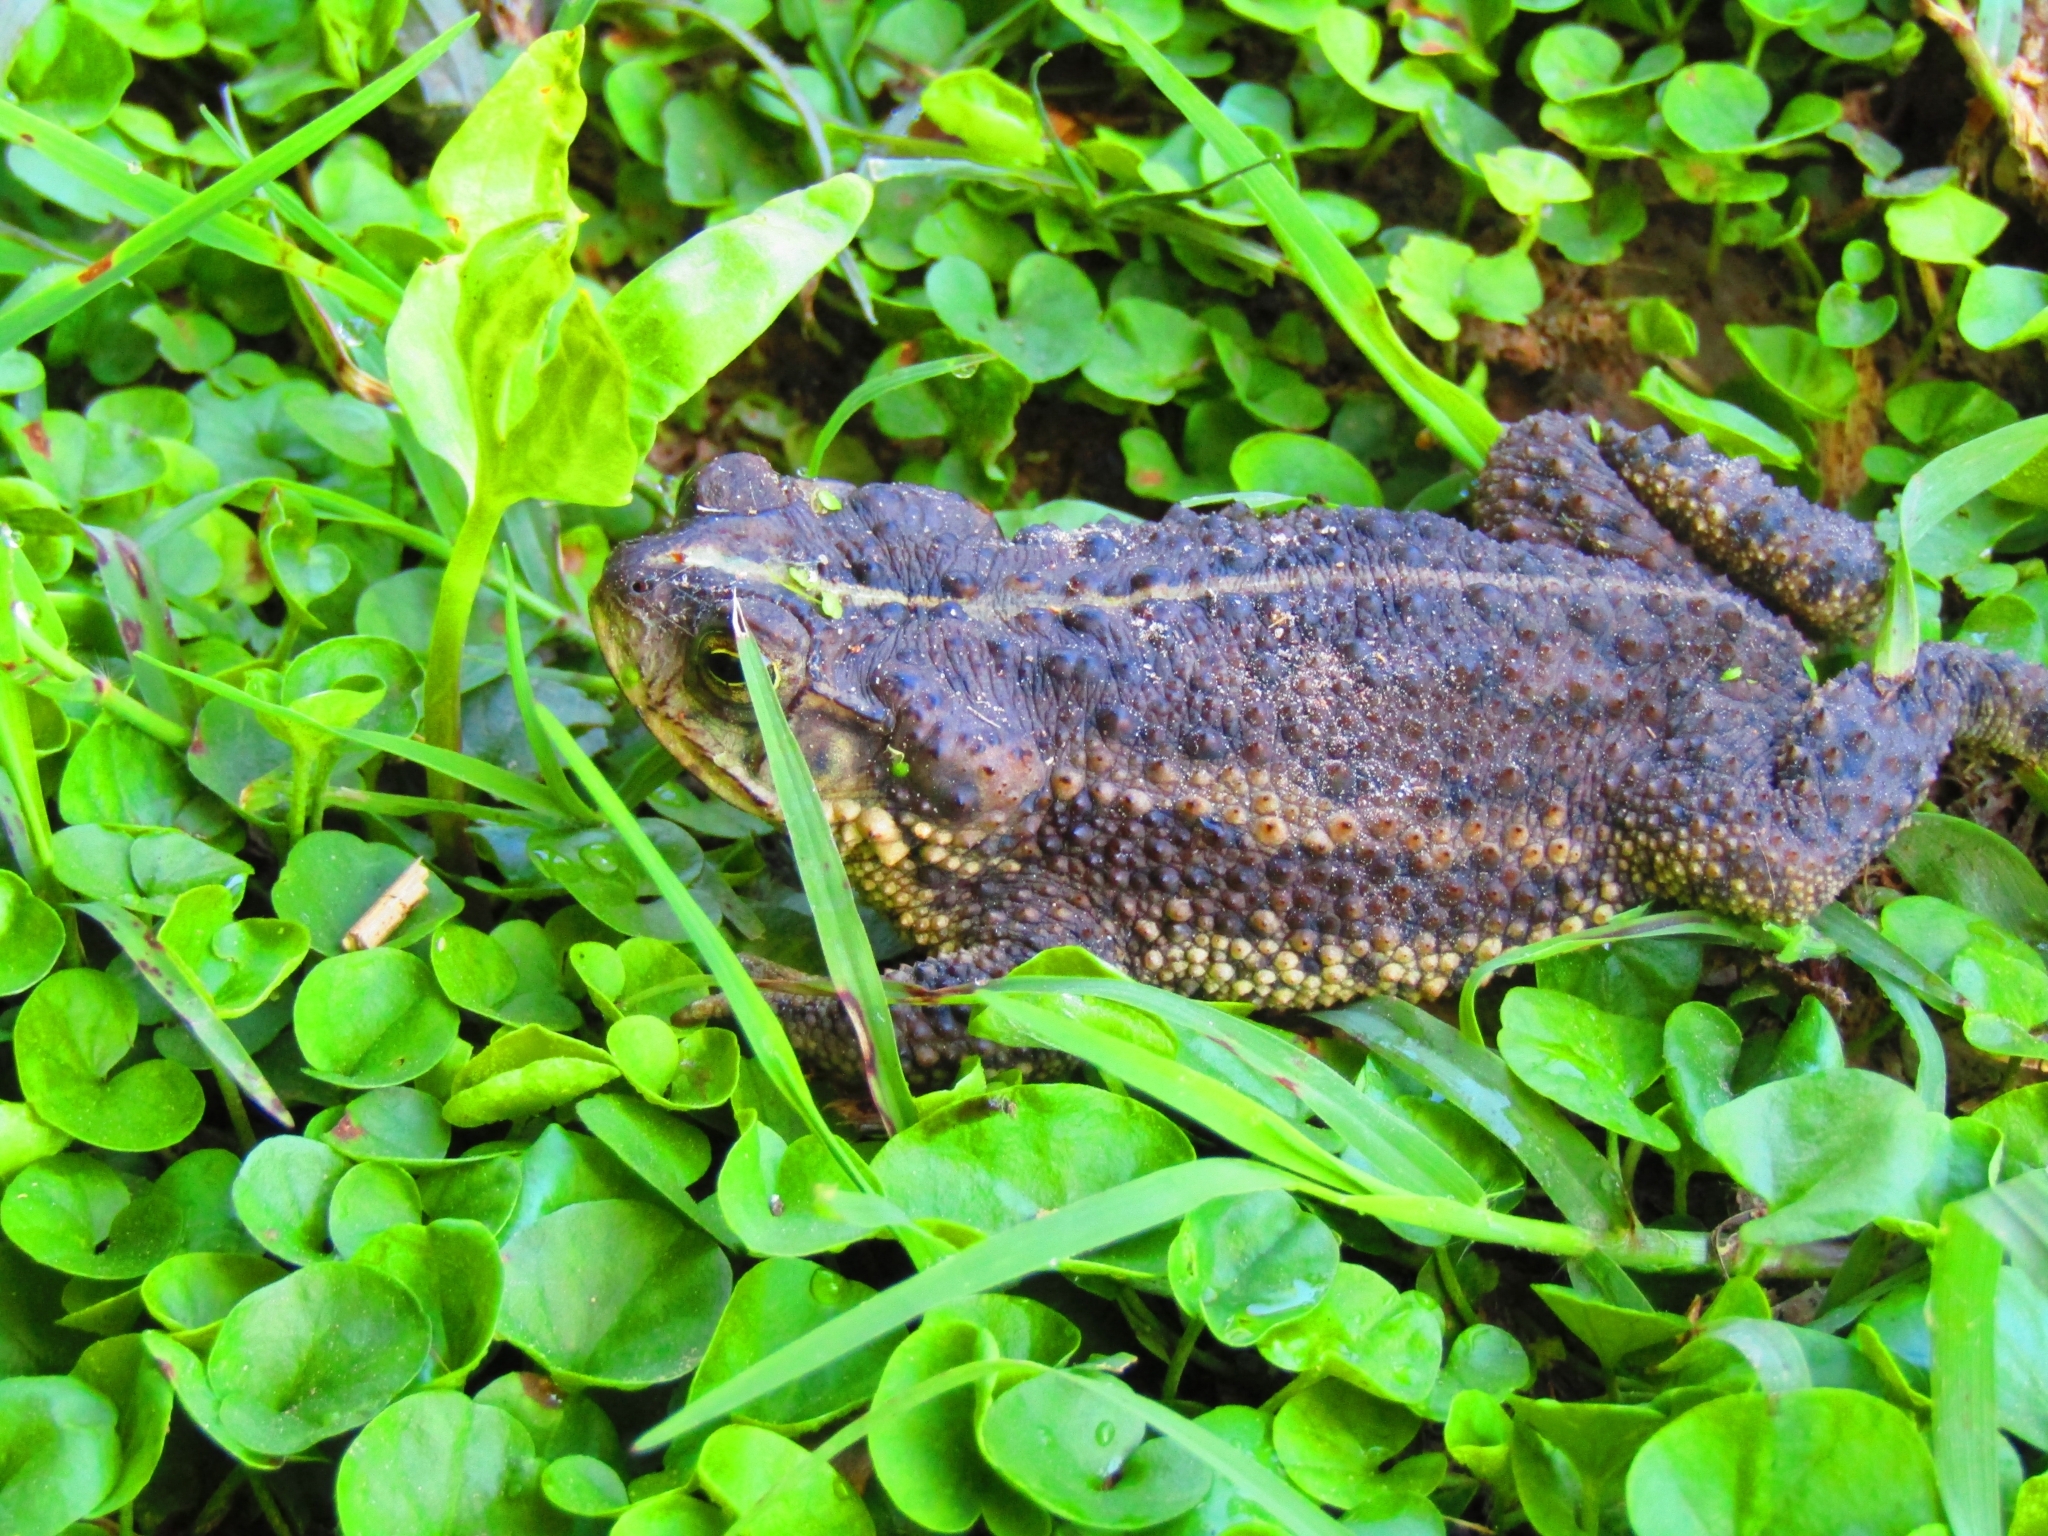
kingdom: Animalia
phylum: Chordata
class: Amphibia
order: Anura
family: Bufonidae
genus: Rhinella
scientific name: Rhinella dorbignyi
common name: D´orbigny’s toad
